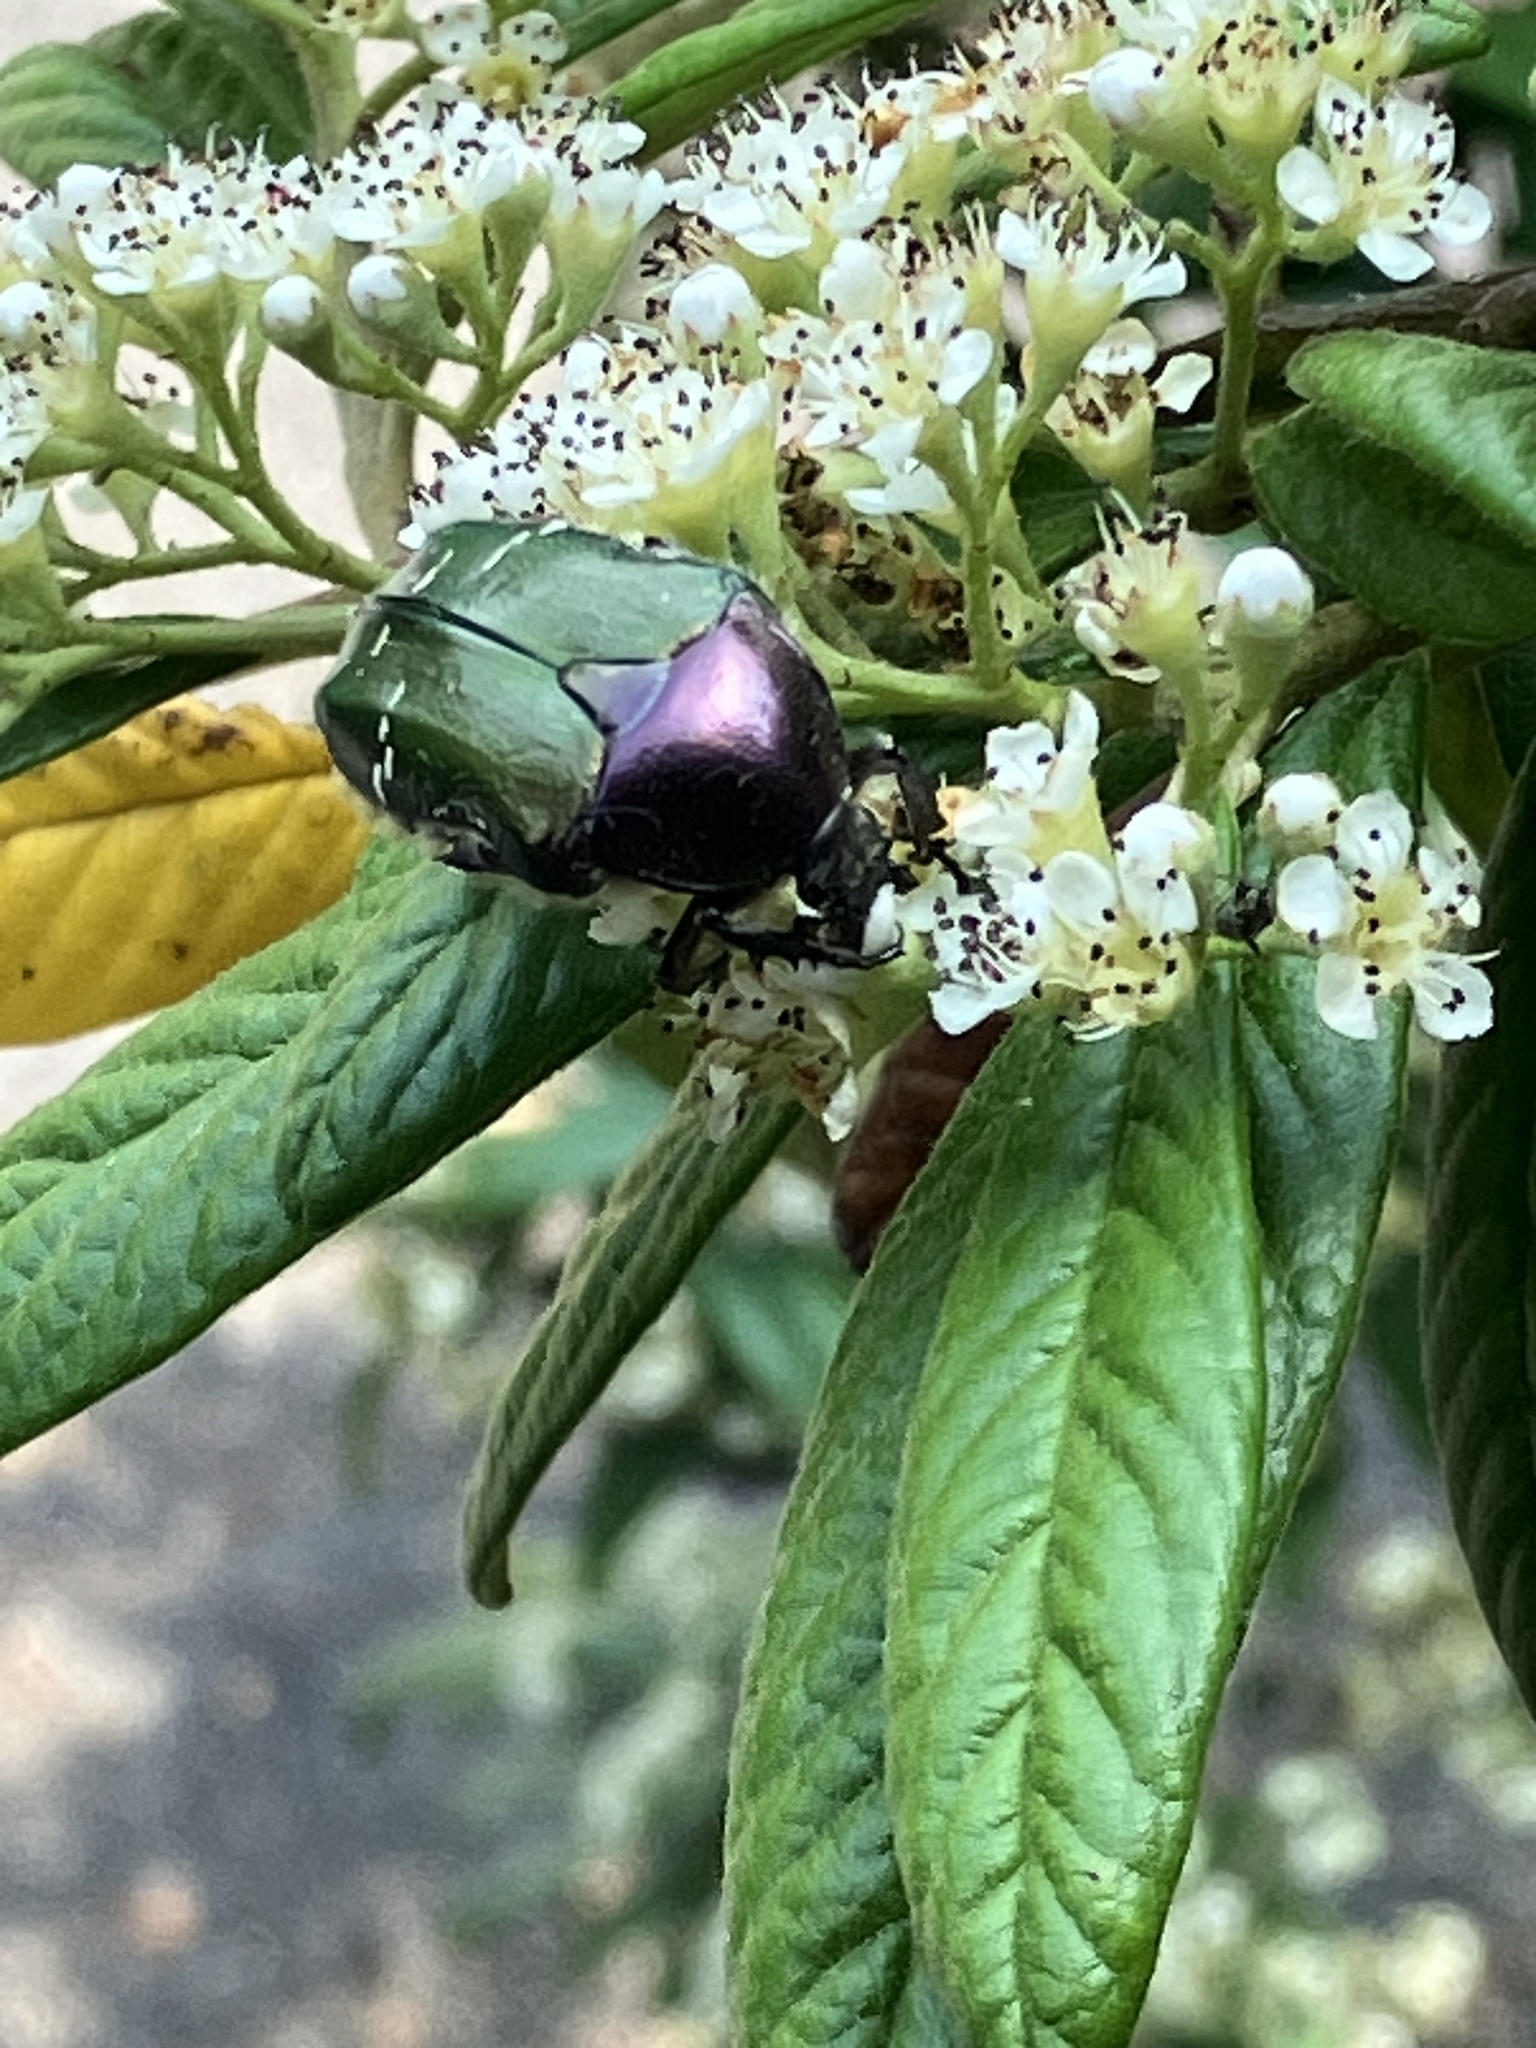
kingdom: Animalia
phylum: Arthropoda
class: Insecta
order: Coleoptera
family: Scarabaeidae
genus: Cetonia
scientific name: Cetonia aurata
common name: Rose chafer
